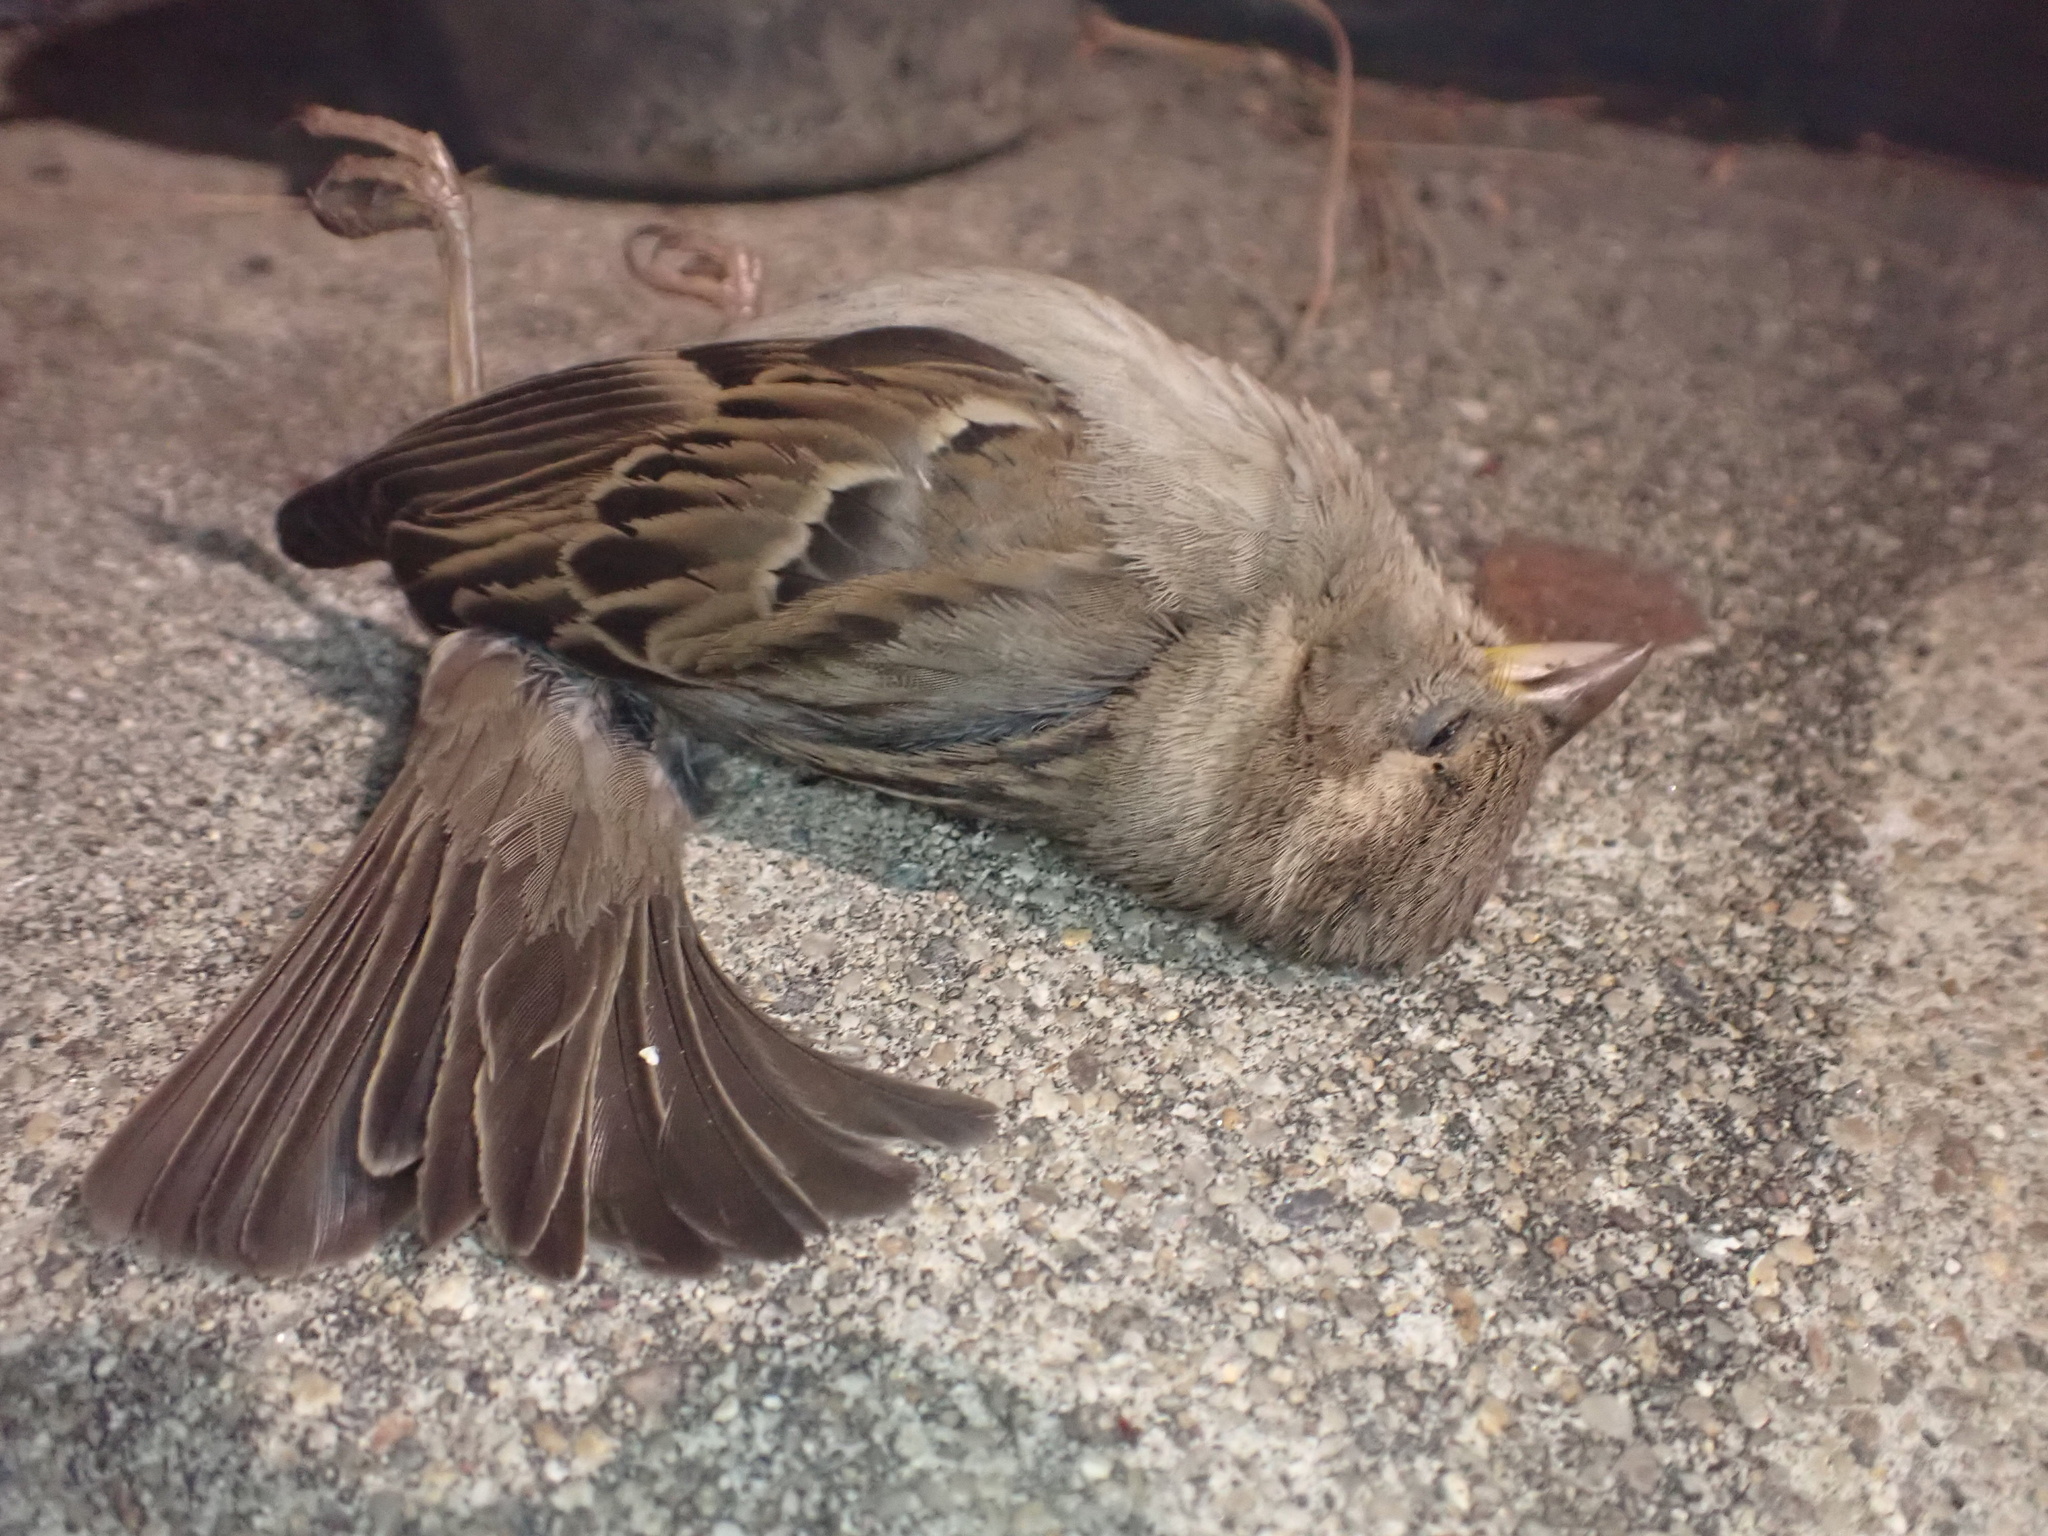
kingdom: Animalia
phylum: Chordata
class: Aves
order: Passeriformes
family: Passeridae
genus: Passer
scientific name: Passer domesticus
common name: House sparrow
